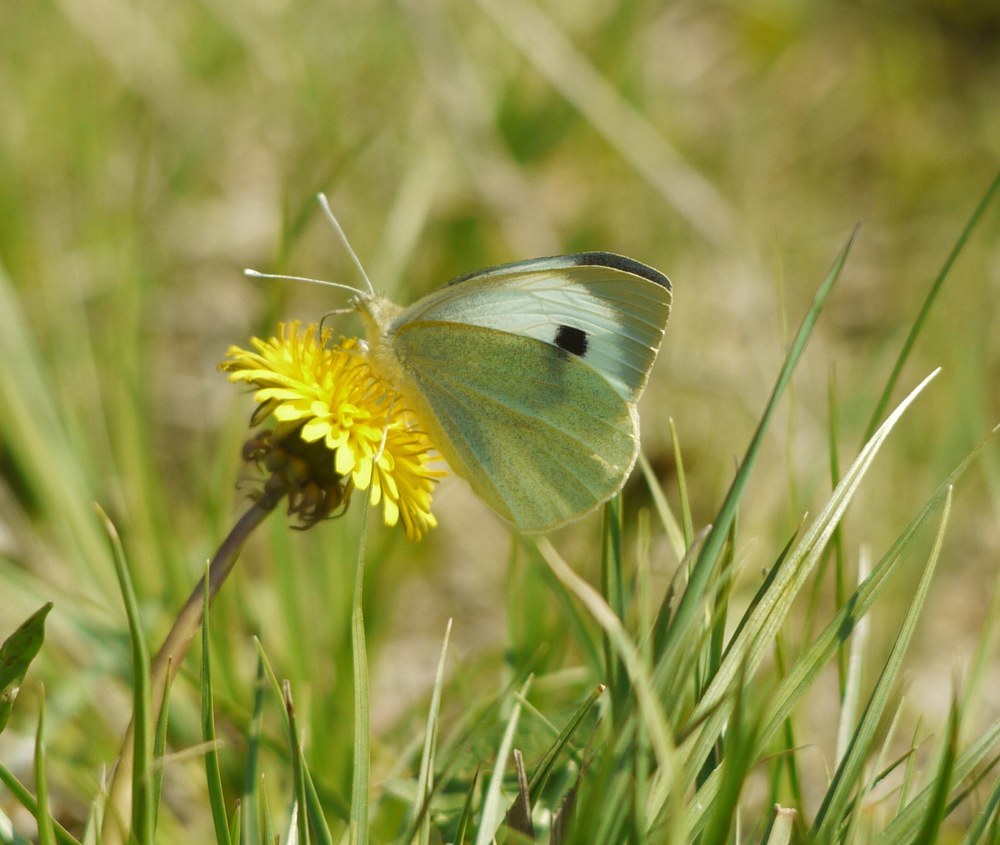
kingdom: Animalia
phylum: Arthropoda
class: Insecta
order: Lepidoptera
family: Pieridae
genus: Pieris
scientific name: Pieris brassicae
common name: Large white
